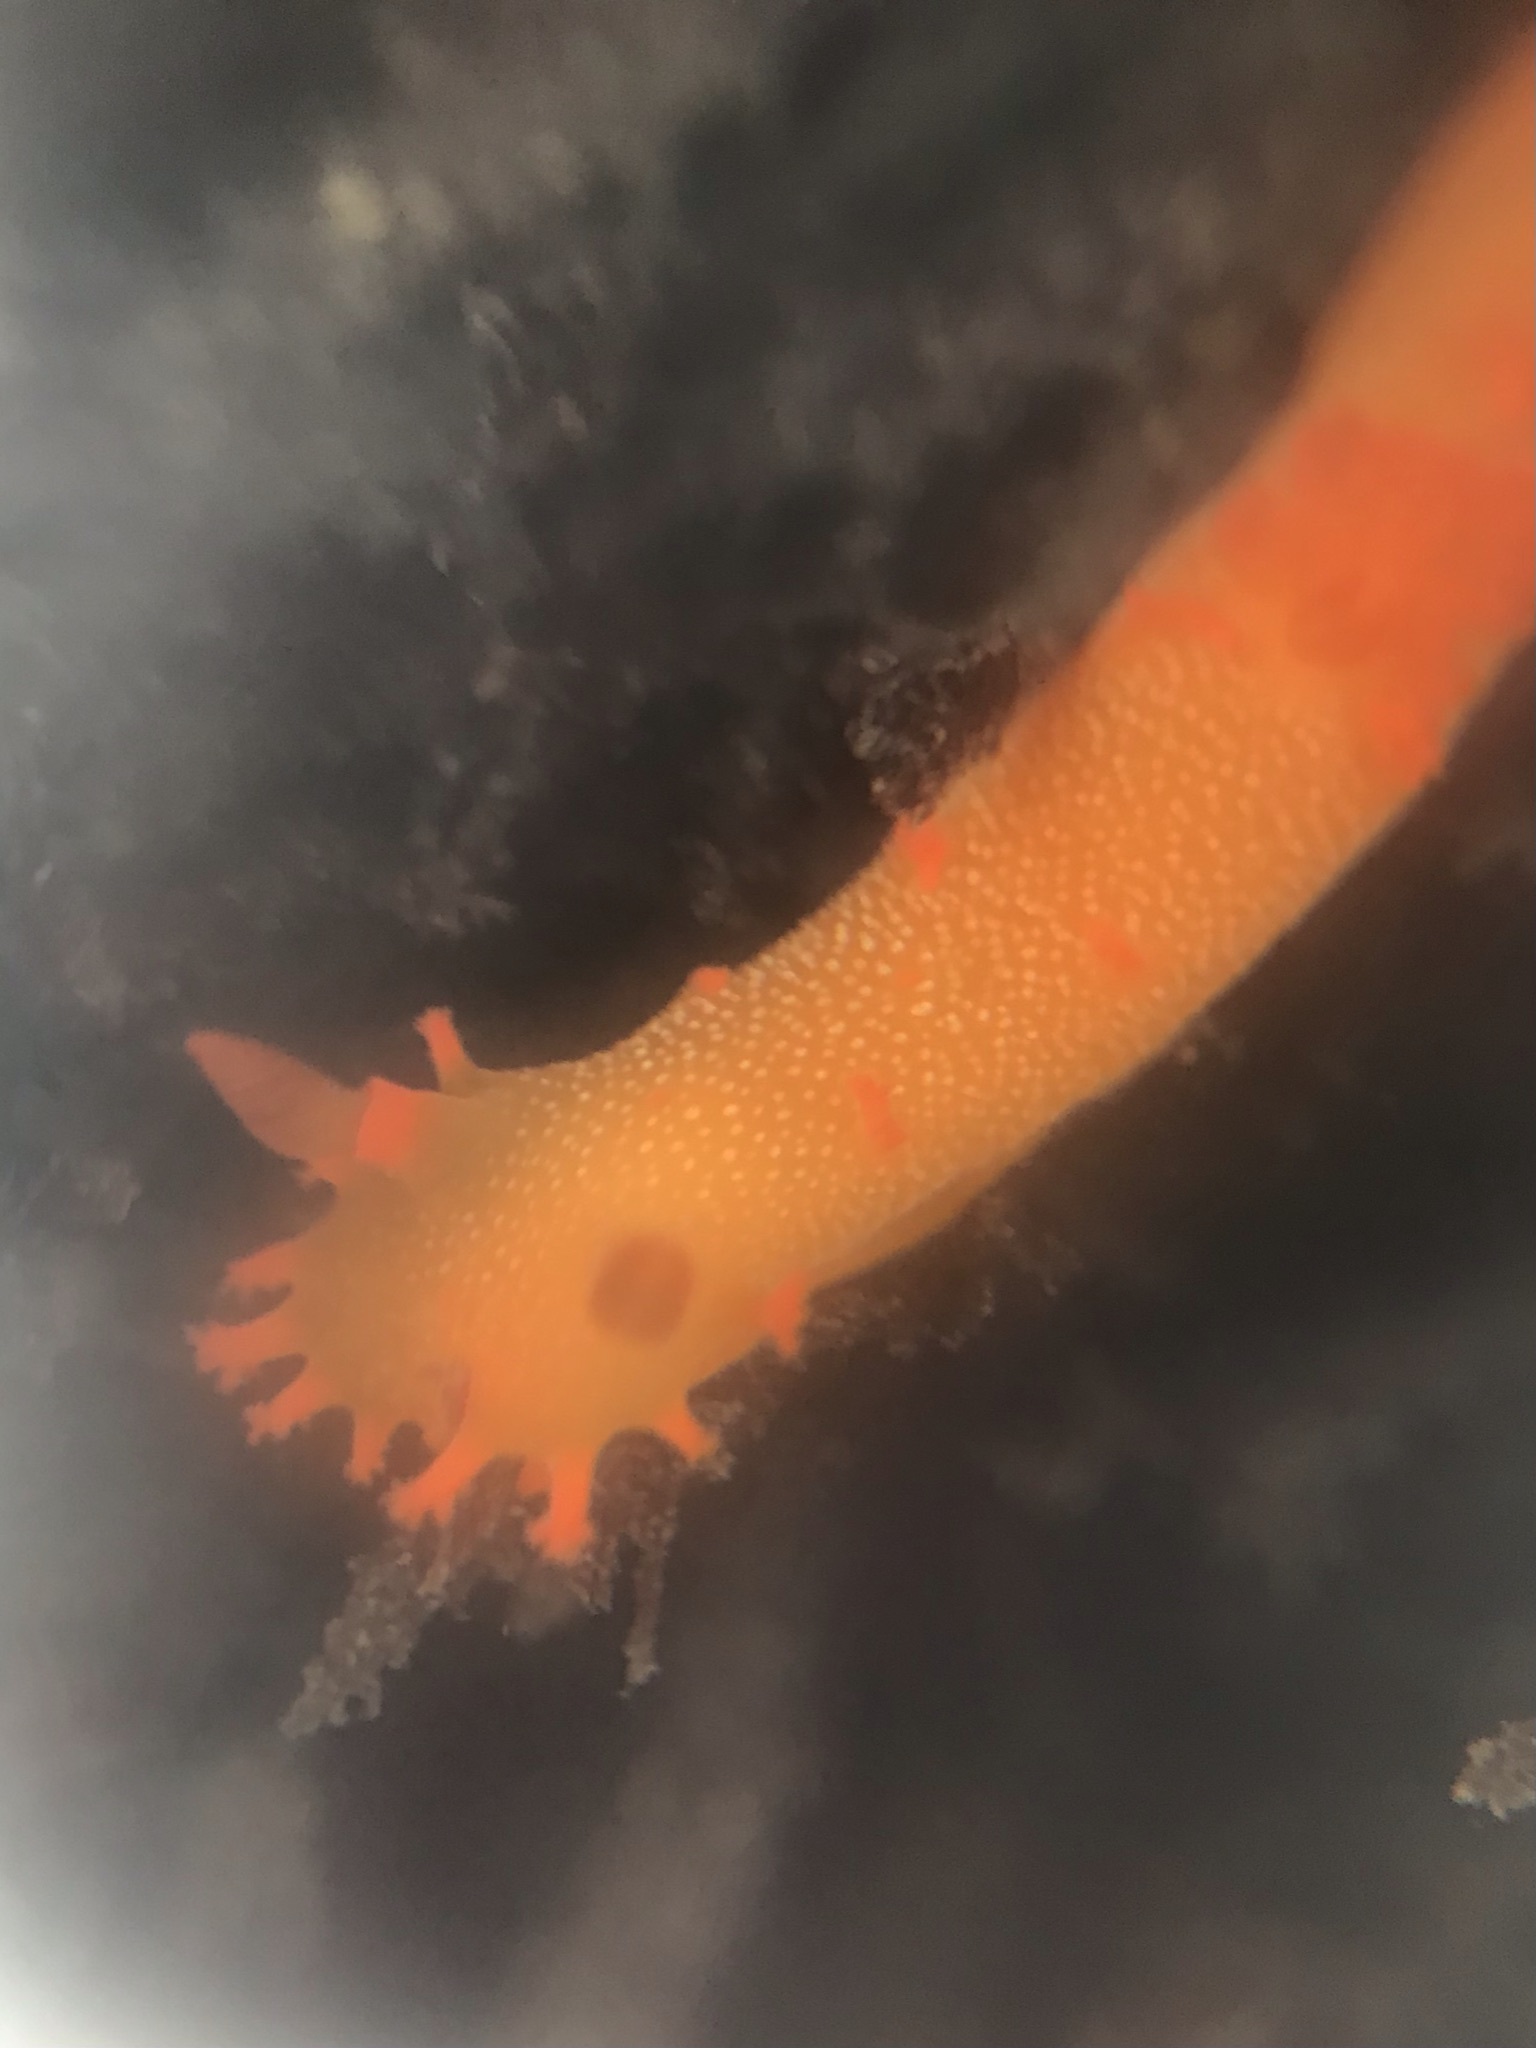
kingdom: Animalia
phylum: Mollusca
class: Gastropoda
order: Nudibranchia
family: Polyceridae
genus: Triopha
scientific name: Triopha maculata
